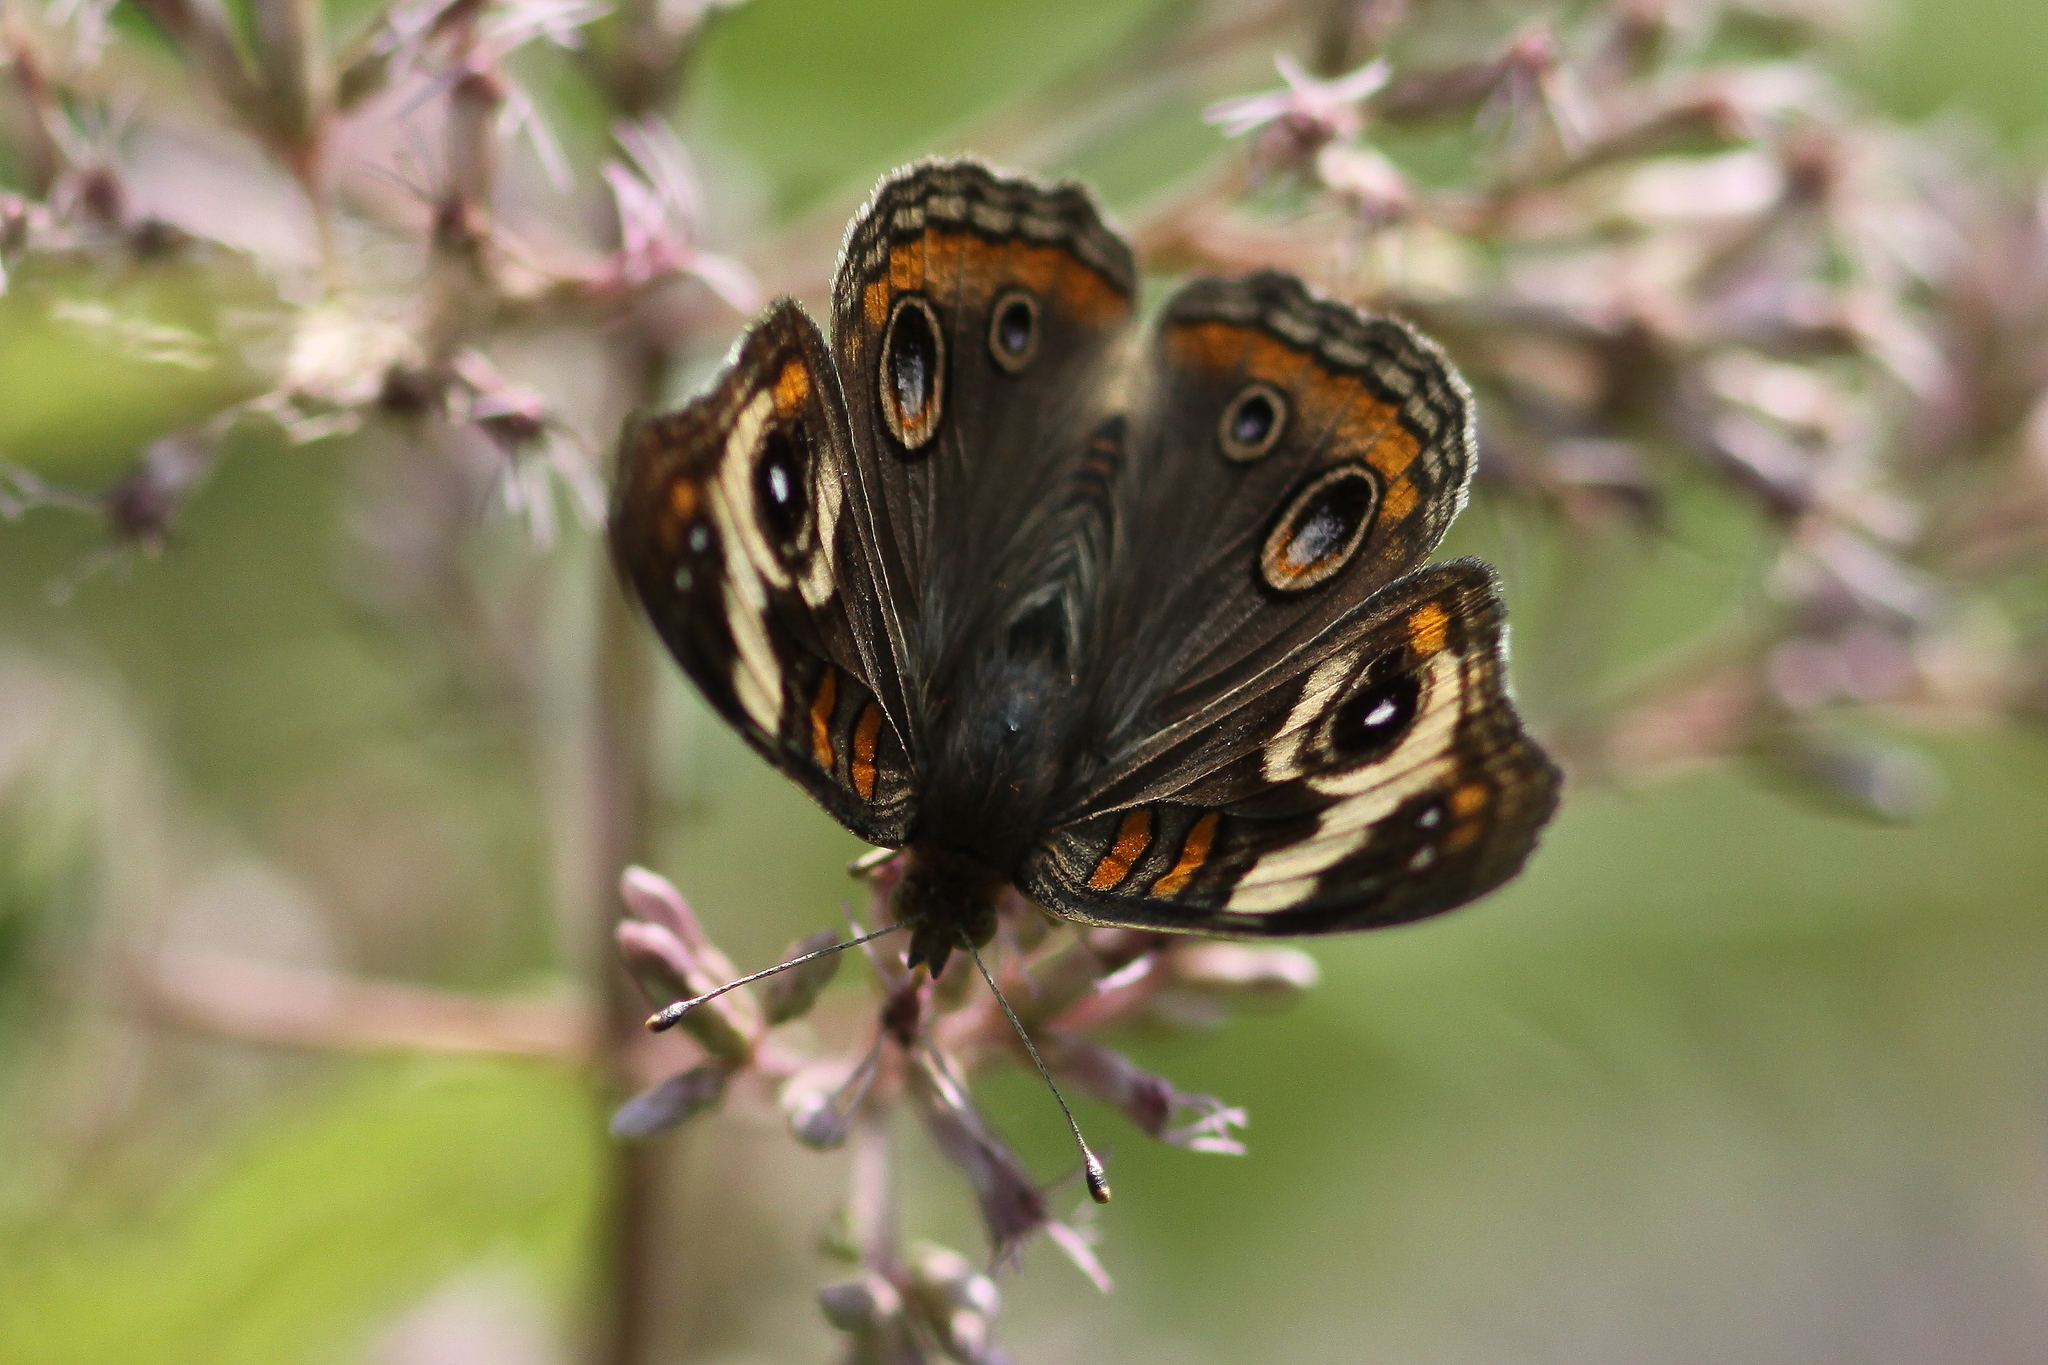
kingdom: Animalia
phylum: Arthropoda
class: Insecta
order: Lepidoptera
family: Nymphalidae
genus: Junonia
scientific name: Junonia coenia
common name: Common buckeye
